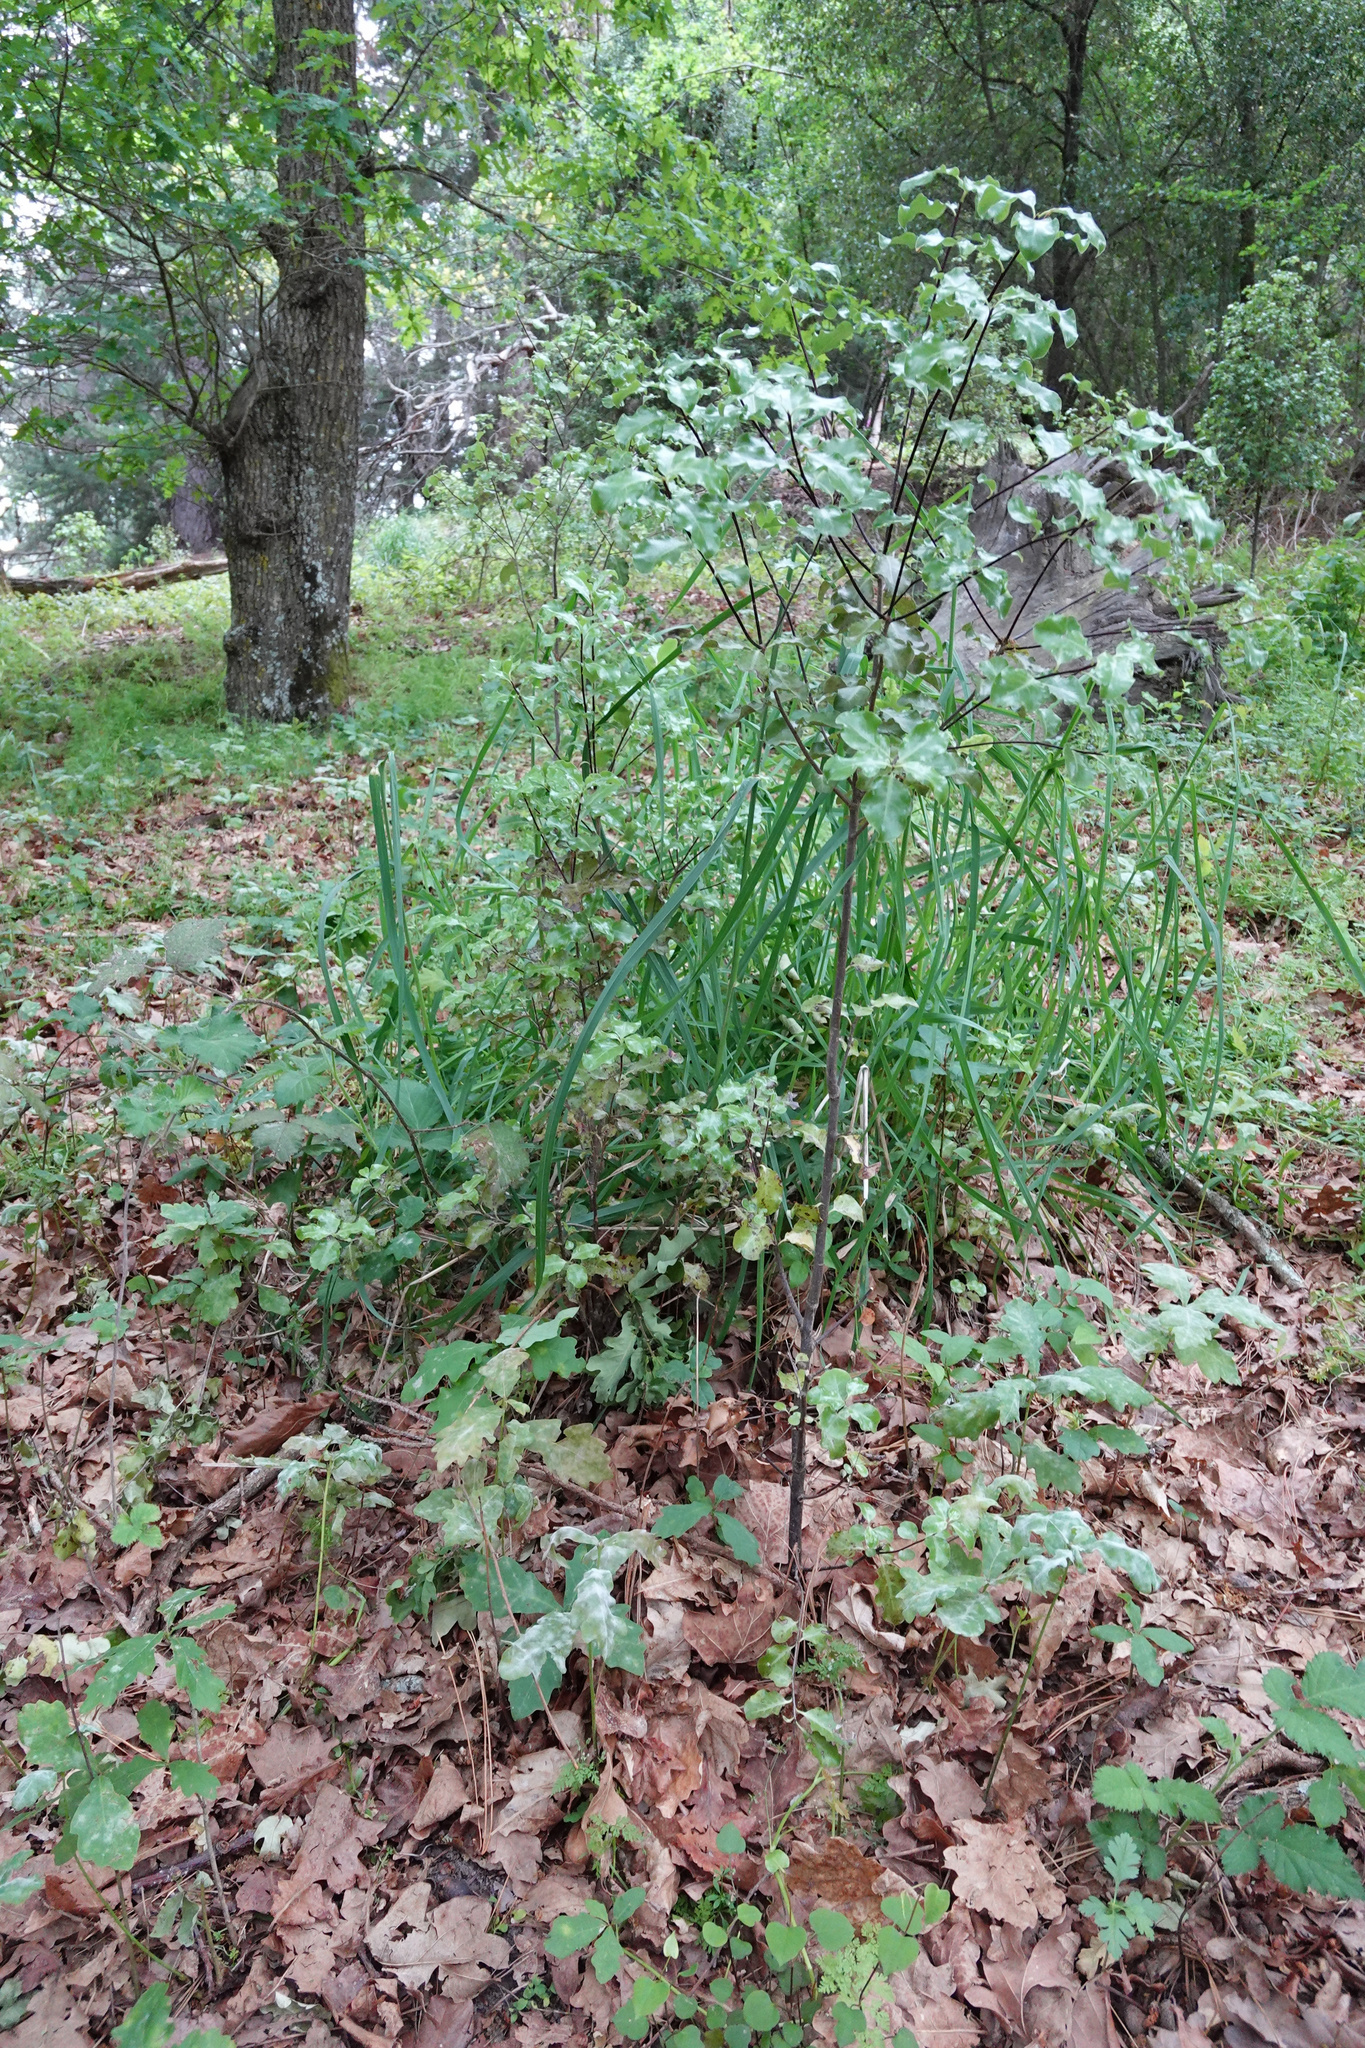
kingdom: Plantae
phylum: Tracheophyta
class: Magnoliopsida
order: Apiales
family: Pittosporaceae
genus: Pittosporum
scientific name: Pittosporum tenuifolium
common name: Kohuhu
